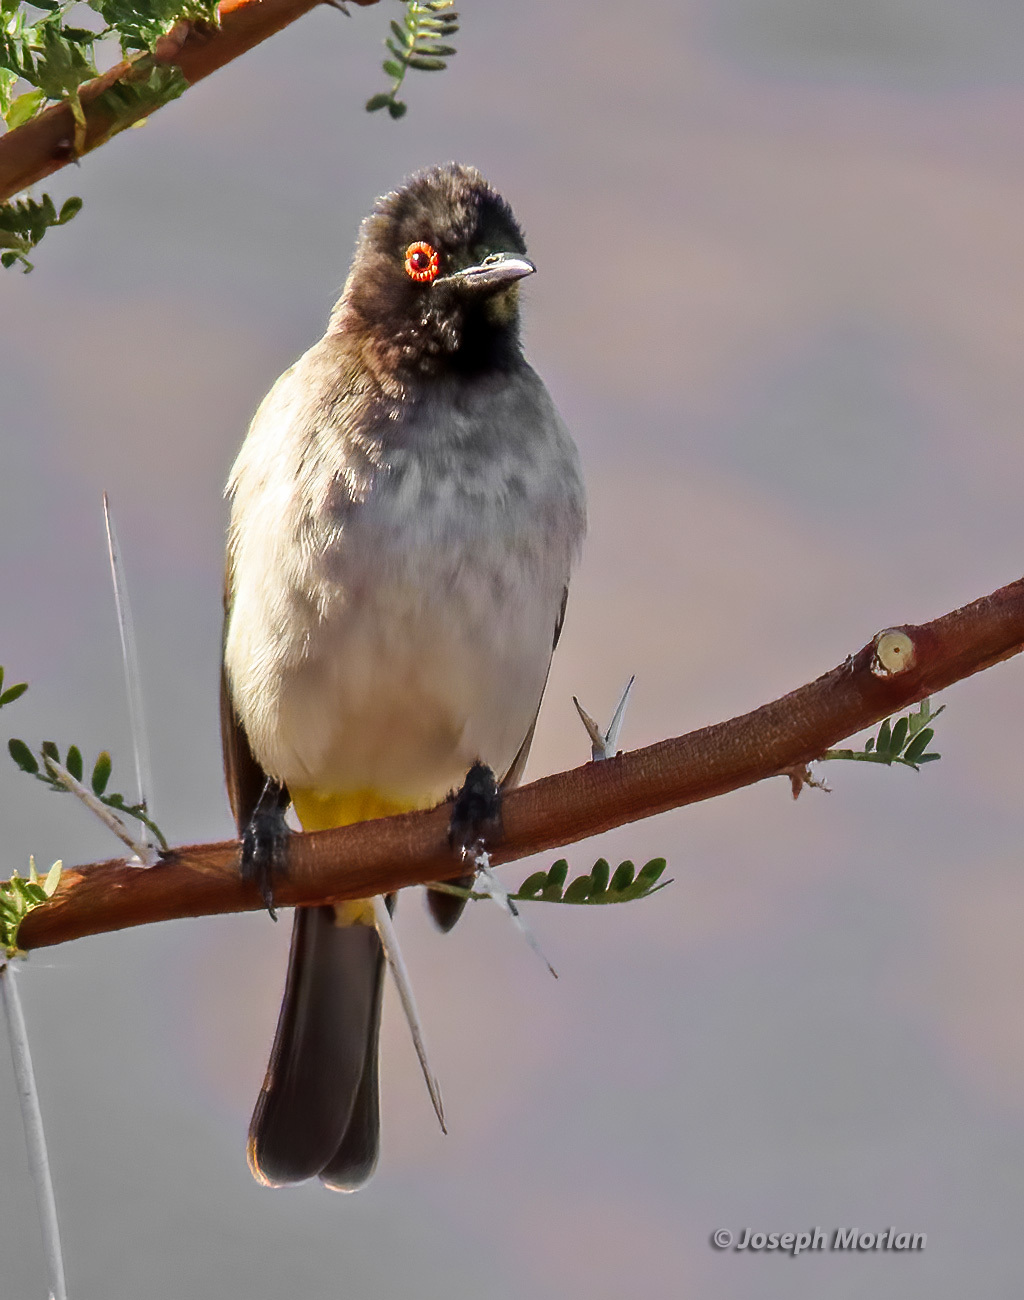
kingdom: Animalia
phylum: Chordata
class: Aves
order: Passeriformes
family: Pycnonotidae
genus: Pycnonotus
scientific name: Pycnonotus nigricans
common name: African red-eyed bulbul
